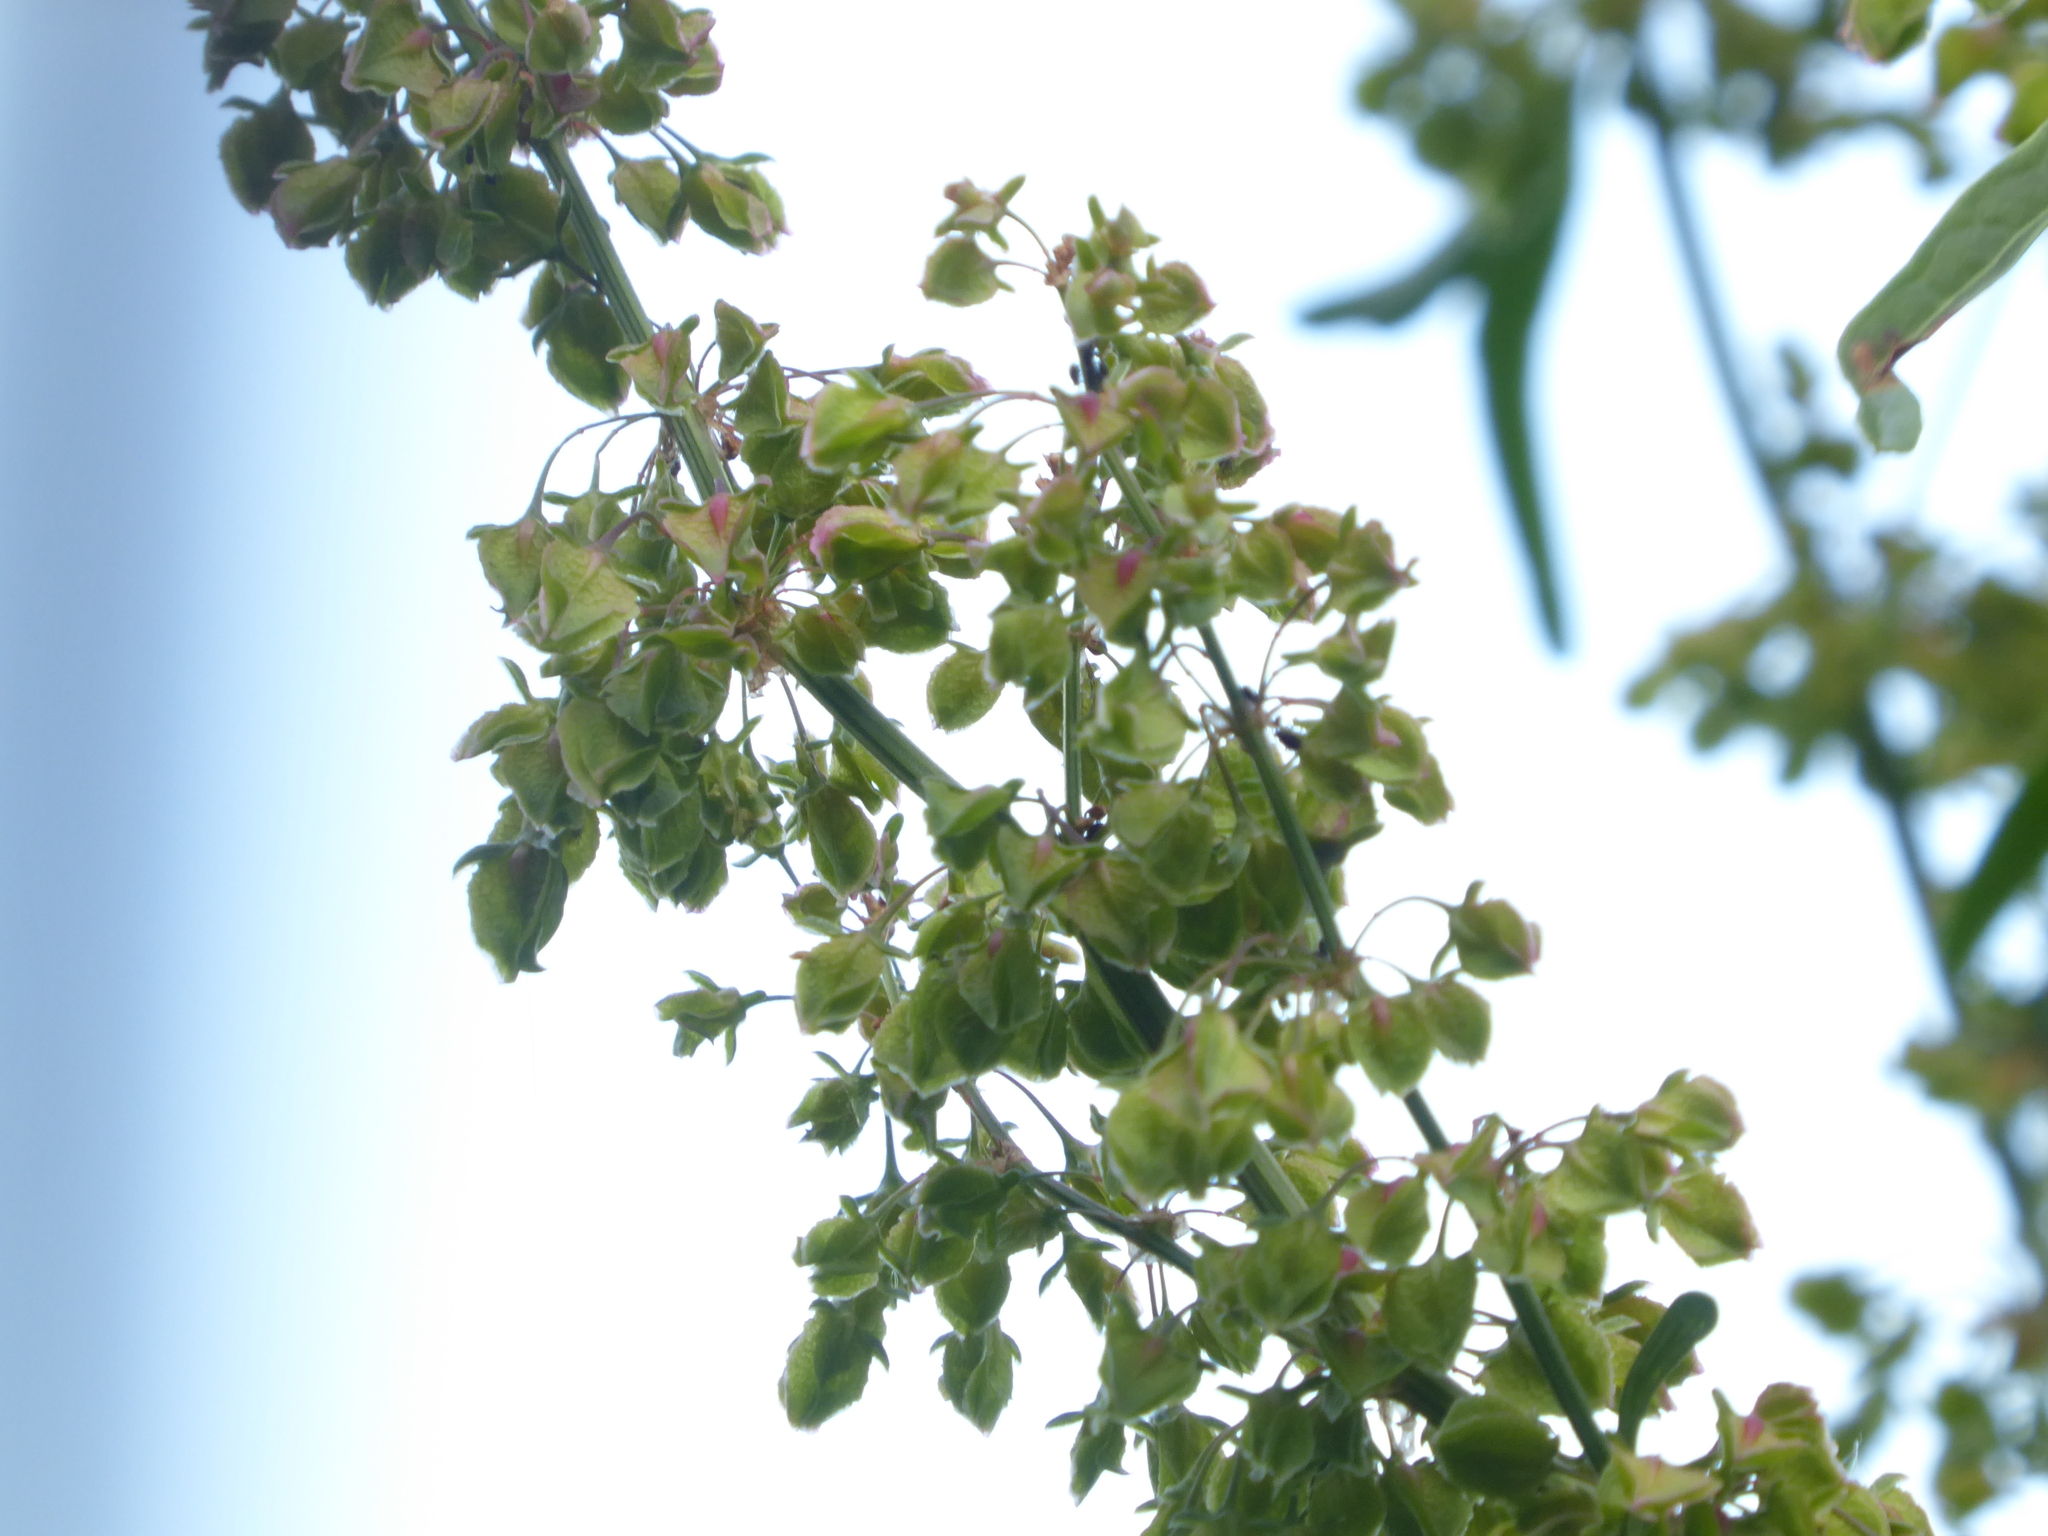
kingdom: Plantae
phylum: Tracheophyta
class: Magnoliopsida
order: Caryophyllales
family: Polygonaceae
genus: Rumex
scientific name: Rumex cristatus
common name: Greek dock
